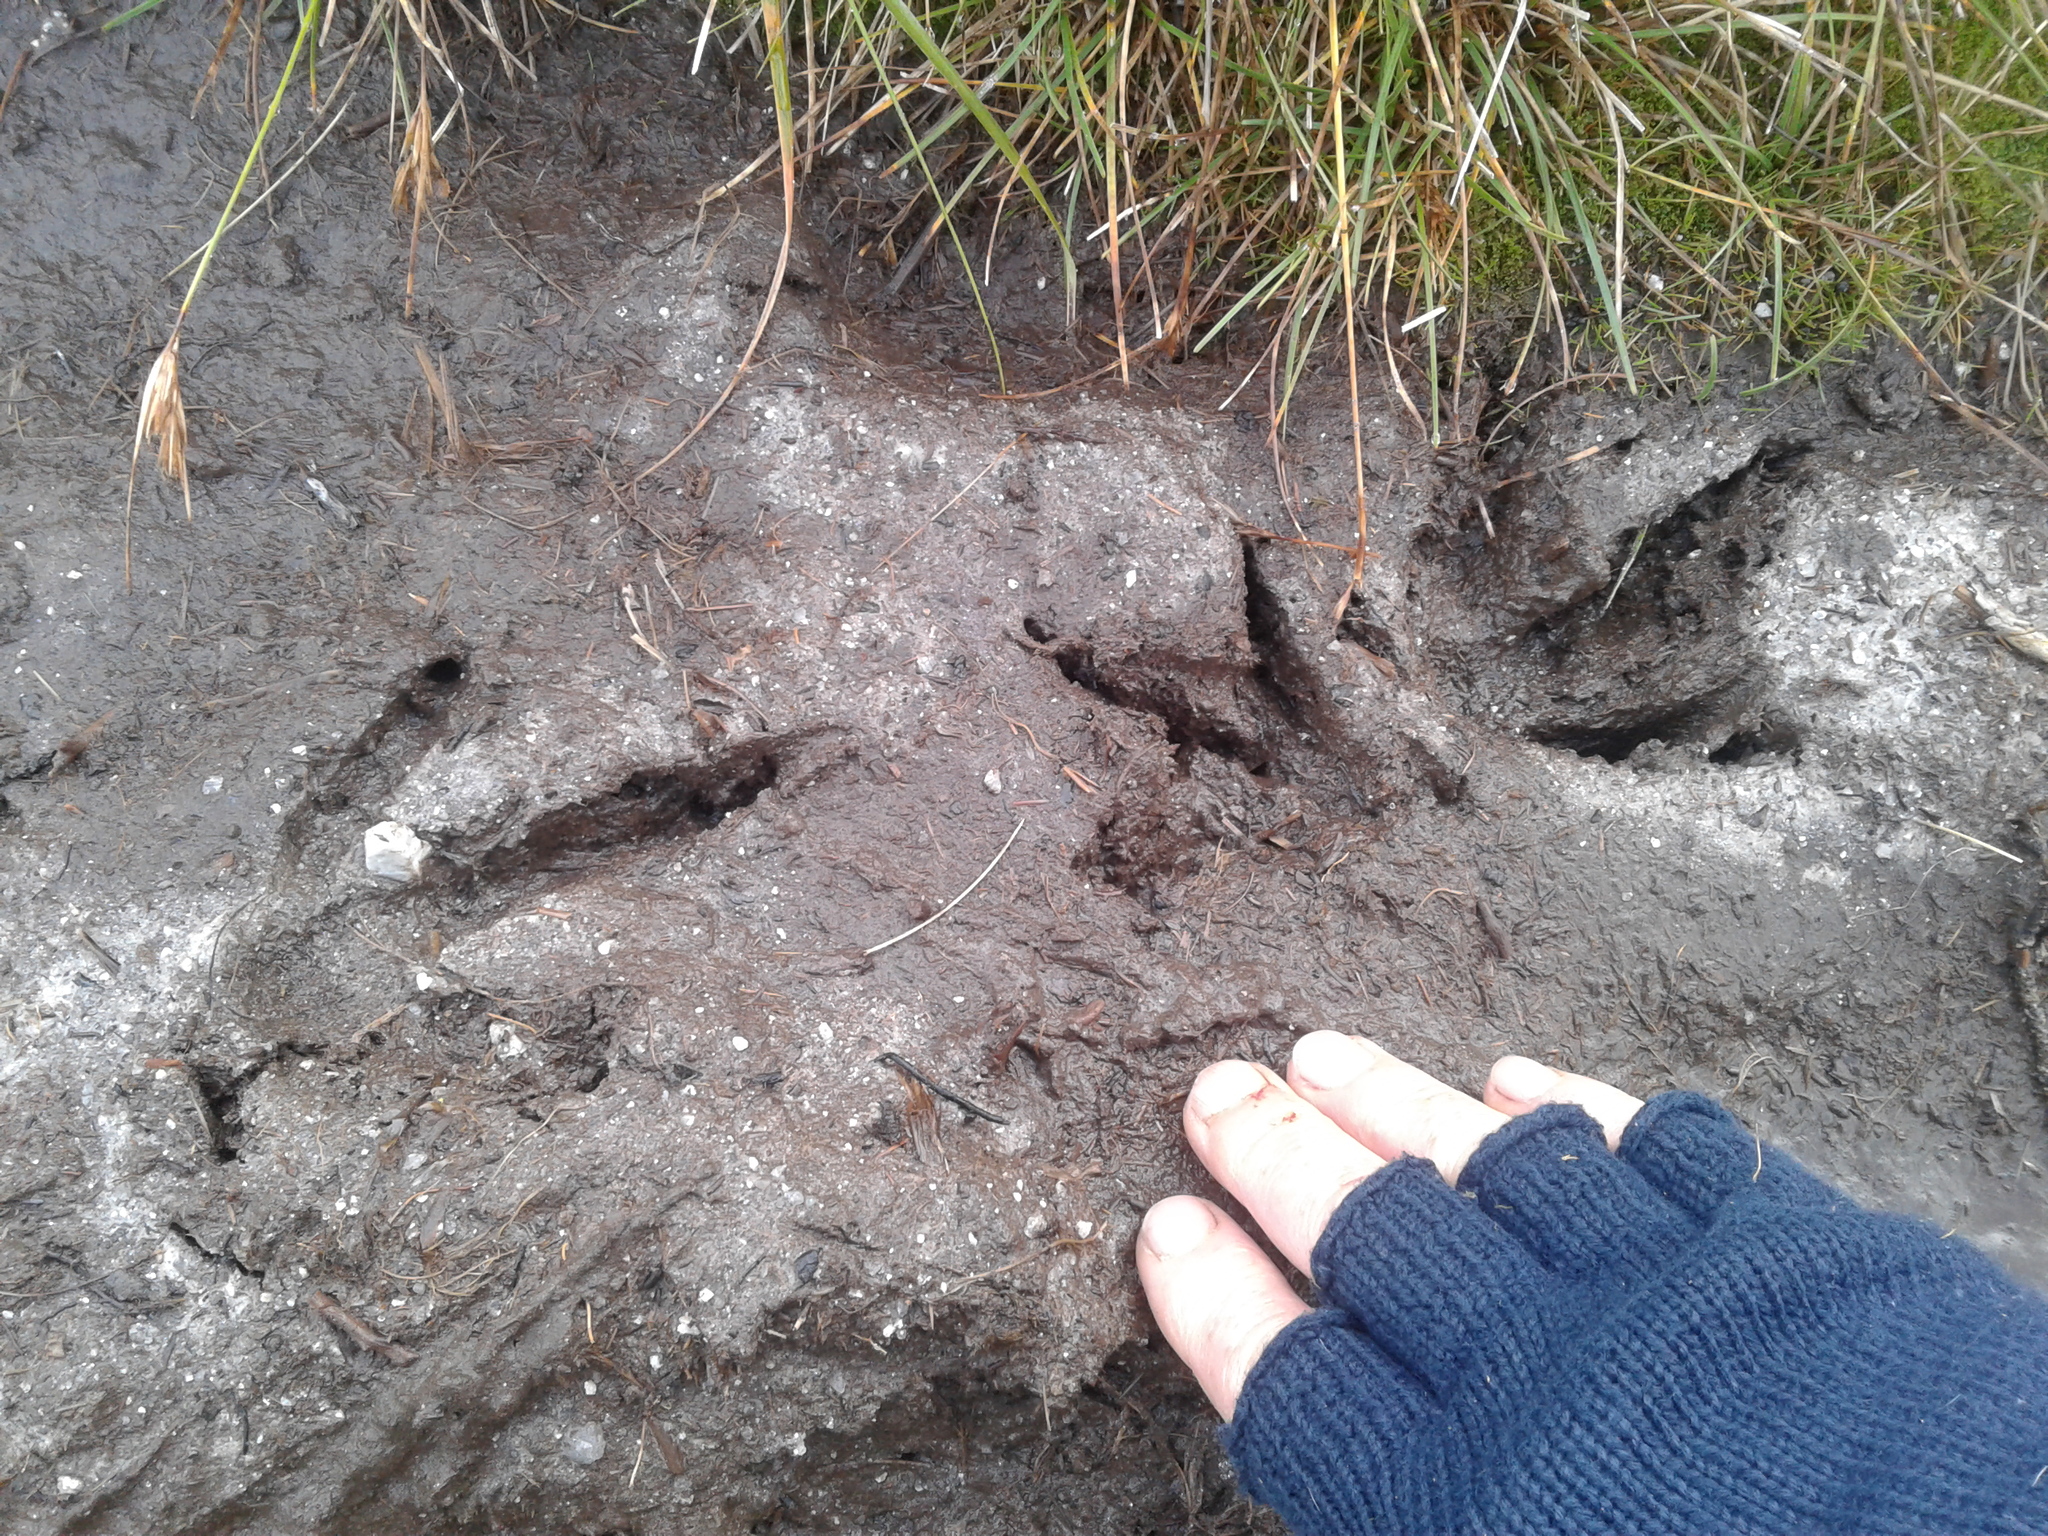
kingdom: Animalia
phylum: Chordata
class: Aves
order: Gruiformes
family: Rallidae
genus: Gallirallus
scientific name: Gallirallus australis
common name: Weka
